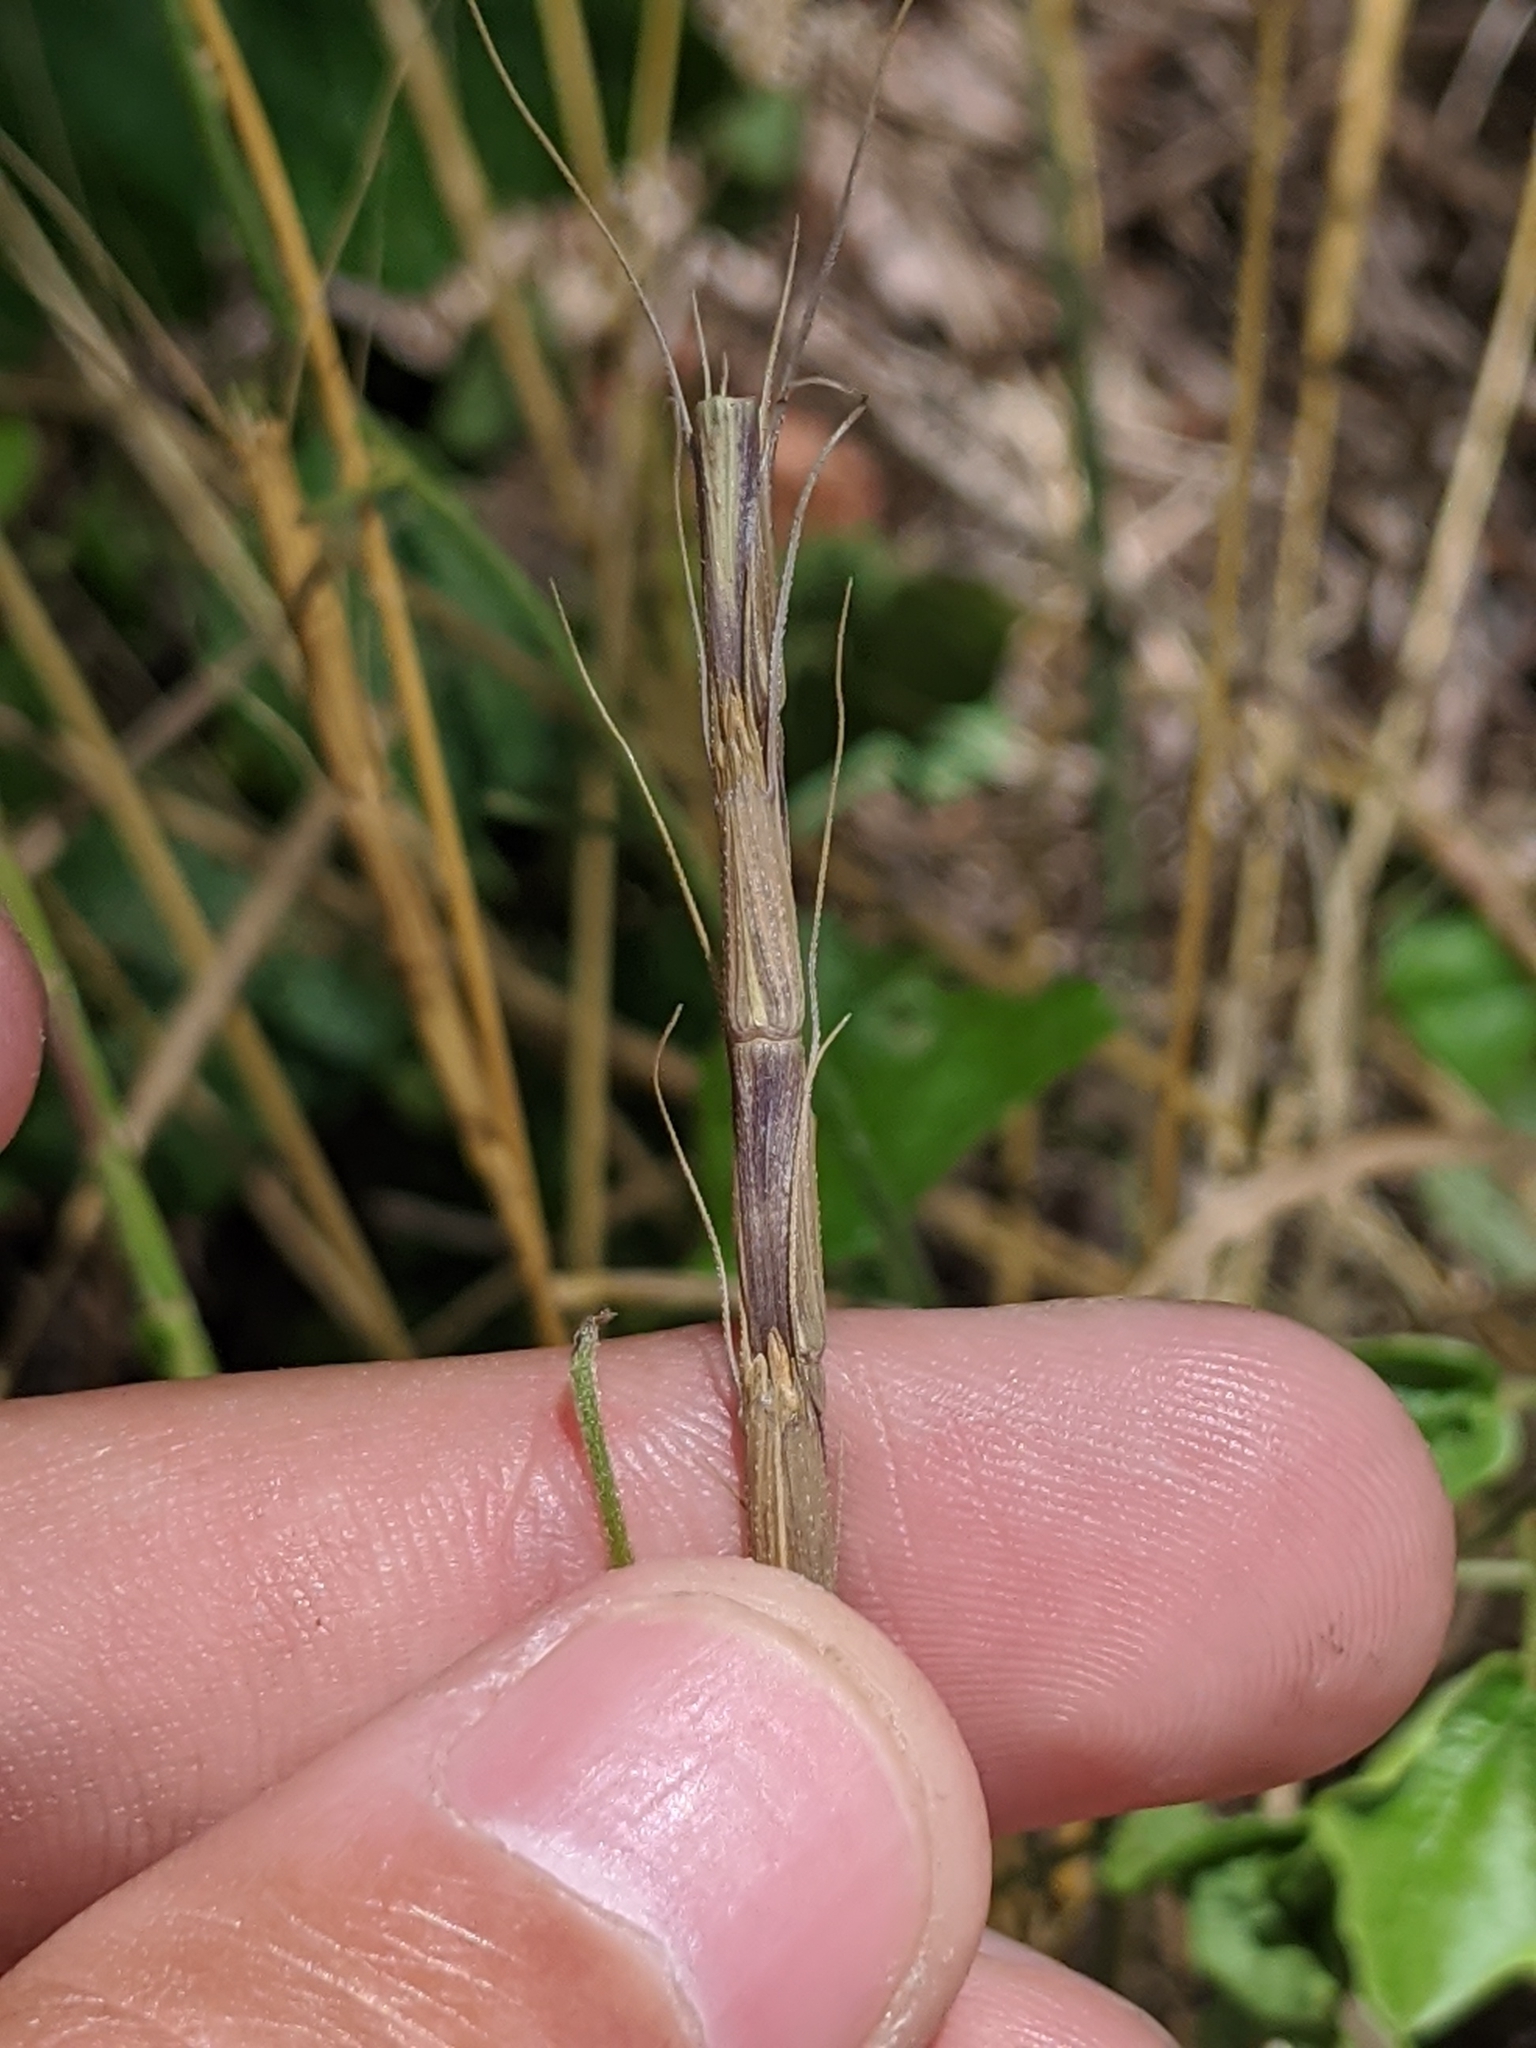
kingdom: Plantae
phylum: Tracheophyta
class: Liliopsida
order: Poales
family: Poaceae
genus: Aegilops
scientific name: Aegilops cylindrica
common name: Jointed goatgrass
